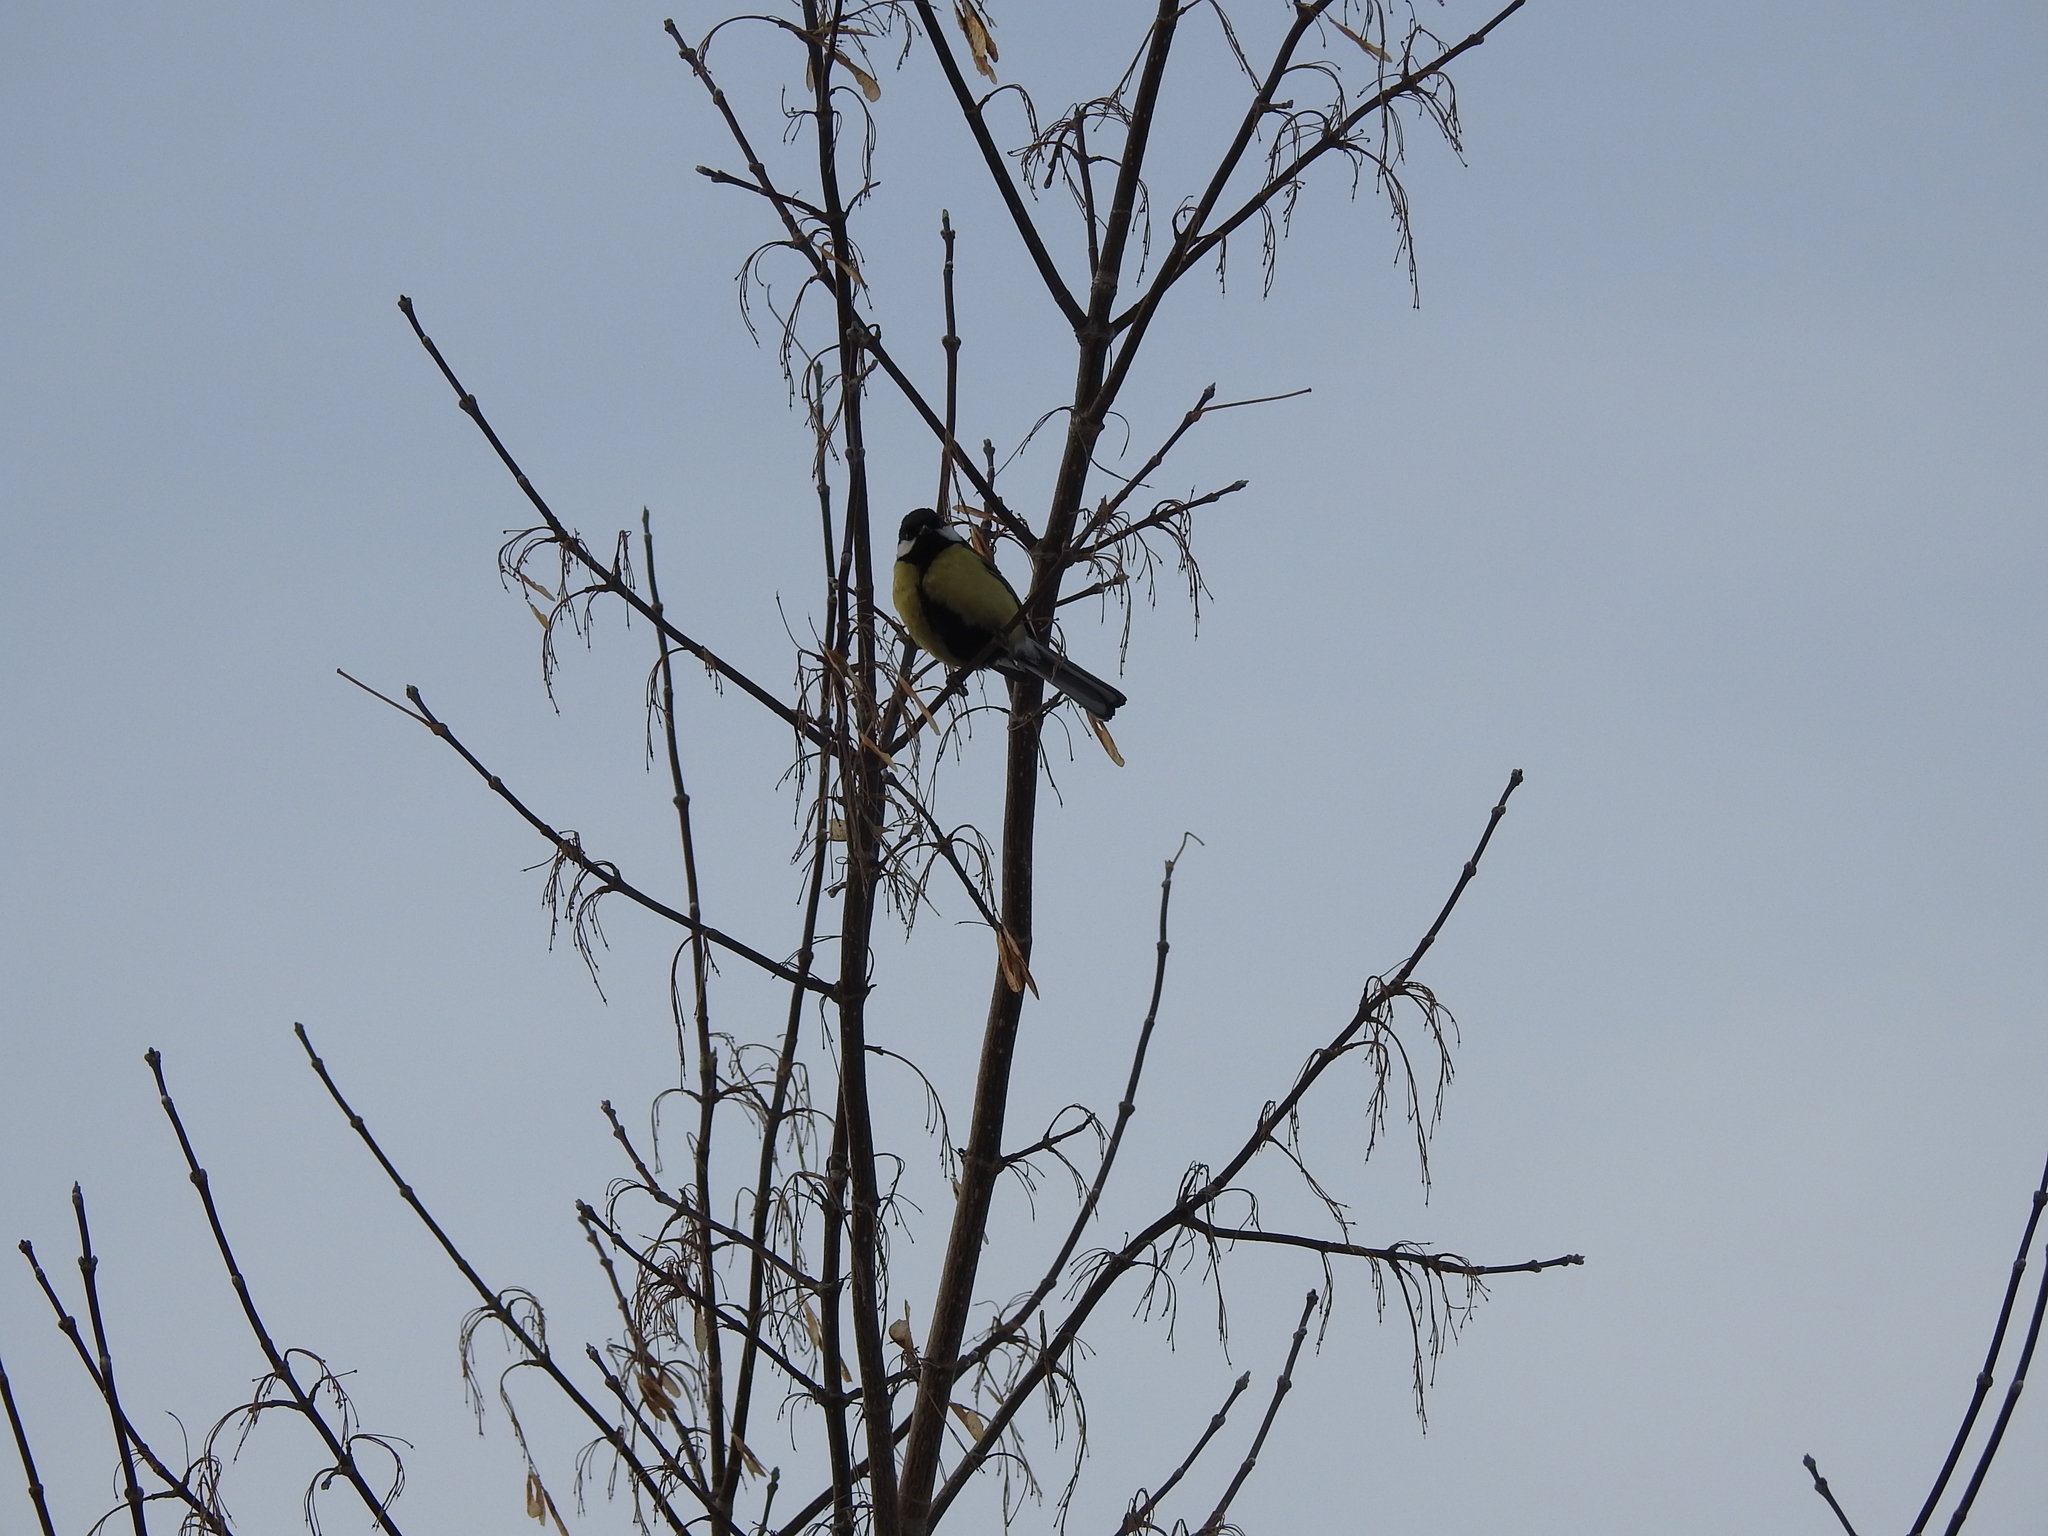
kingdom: Animalia
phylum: Chordata
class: Aves
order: Passeriformes
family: Paridae
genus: Parus
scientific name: Parus major
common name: Great tit
